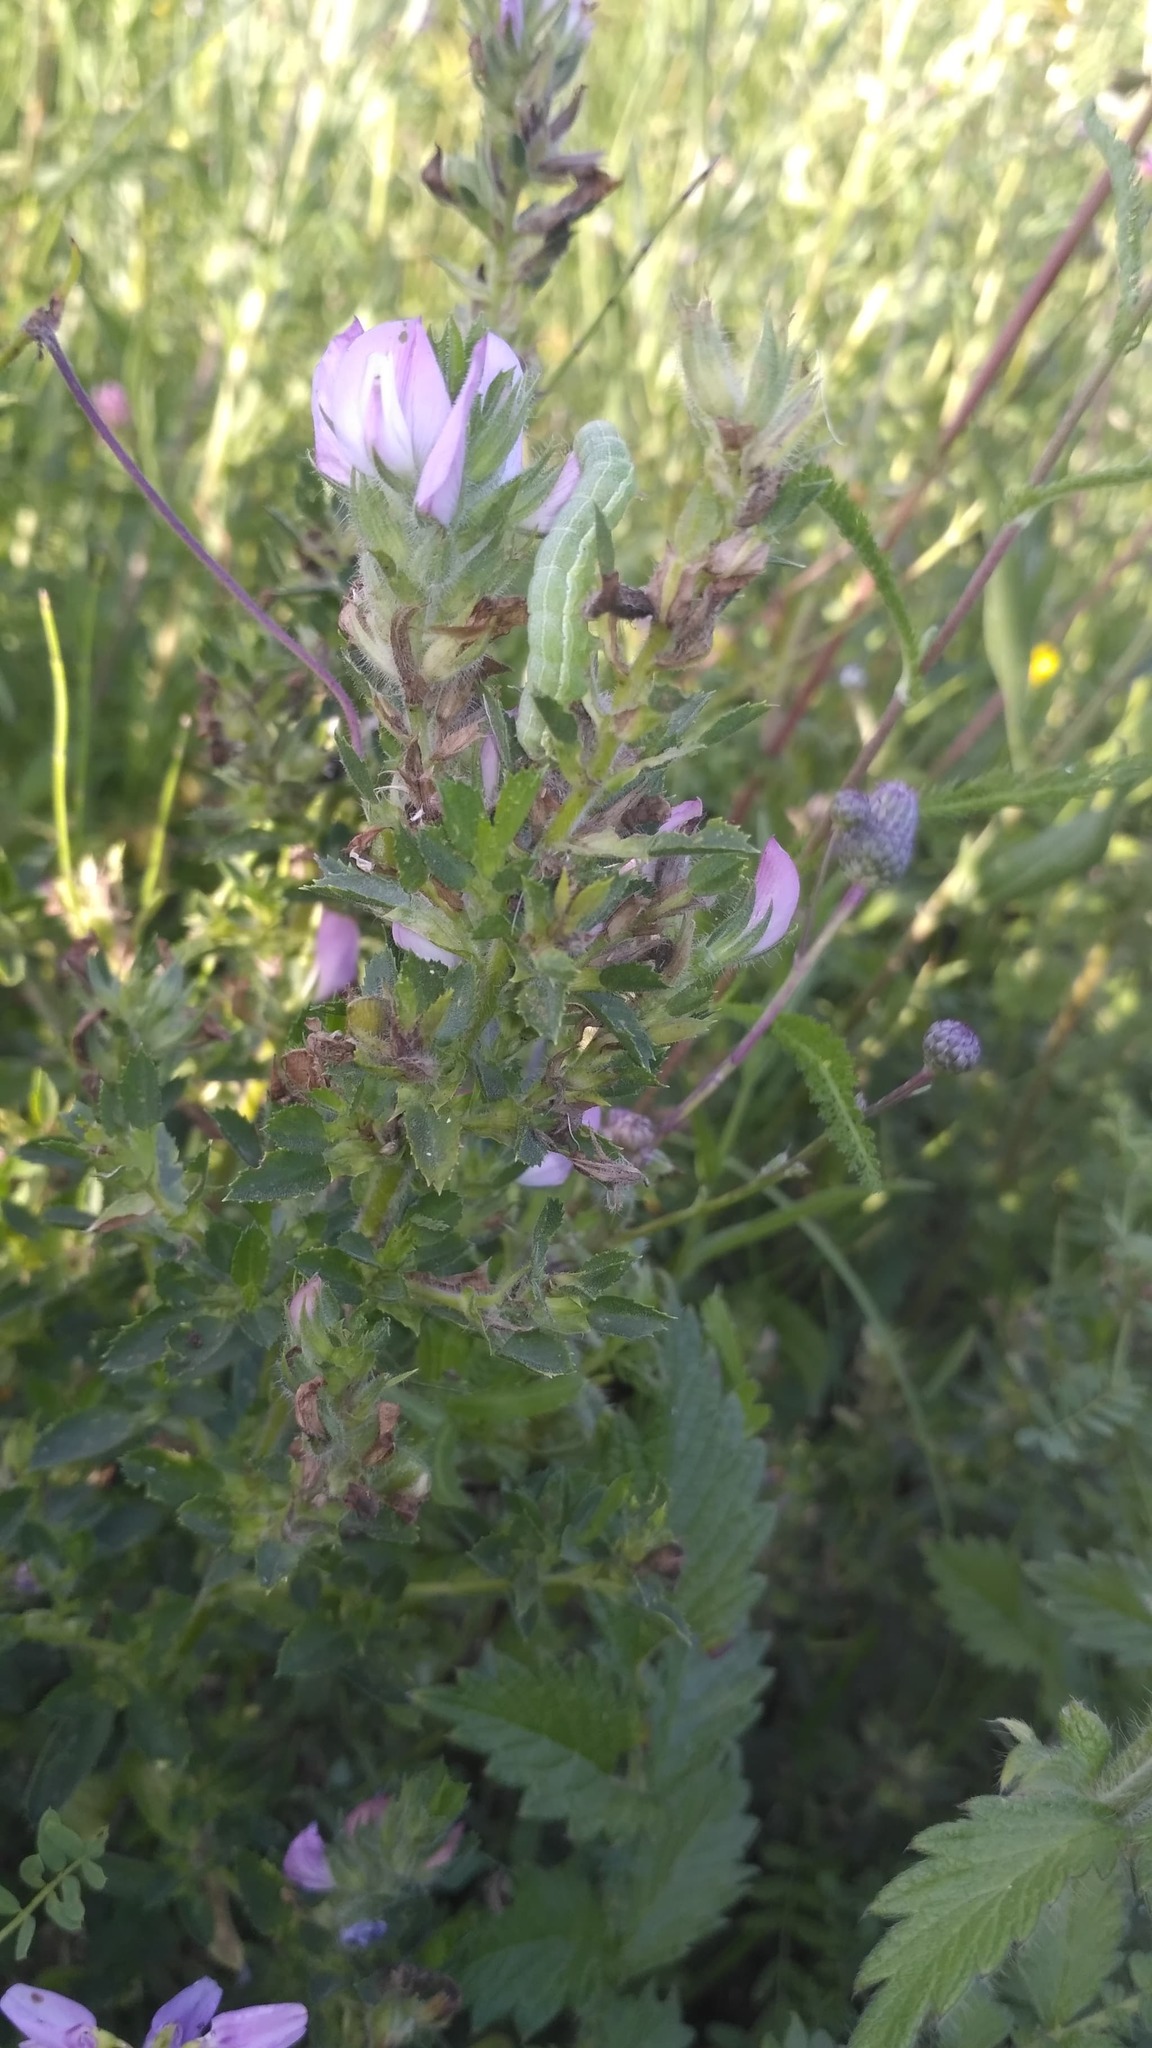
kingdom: Plantae
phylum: Tracheophyta
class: Magnoliopsida
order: Fabales
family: Fabaceae
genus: Ononis
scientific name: Ononis arvensis
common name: Field restharrow
